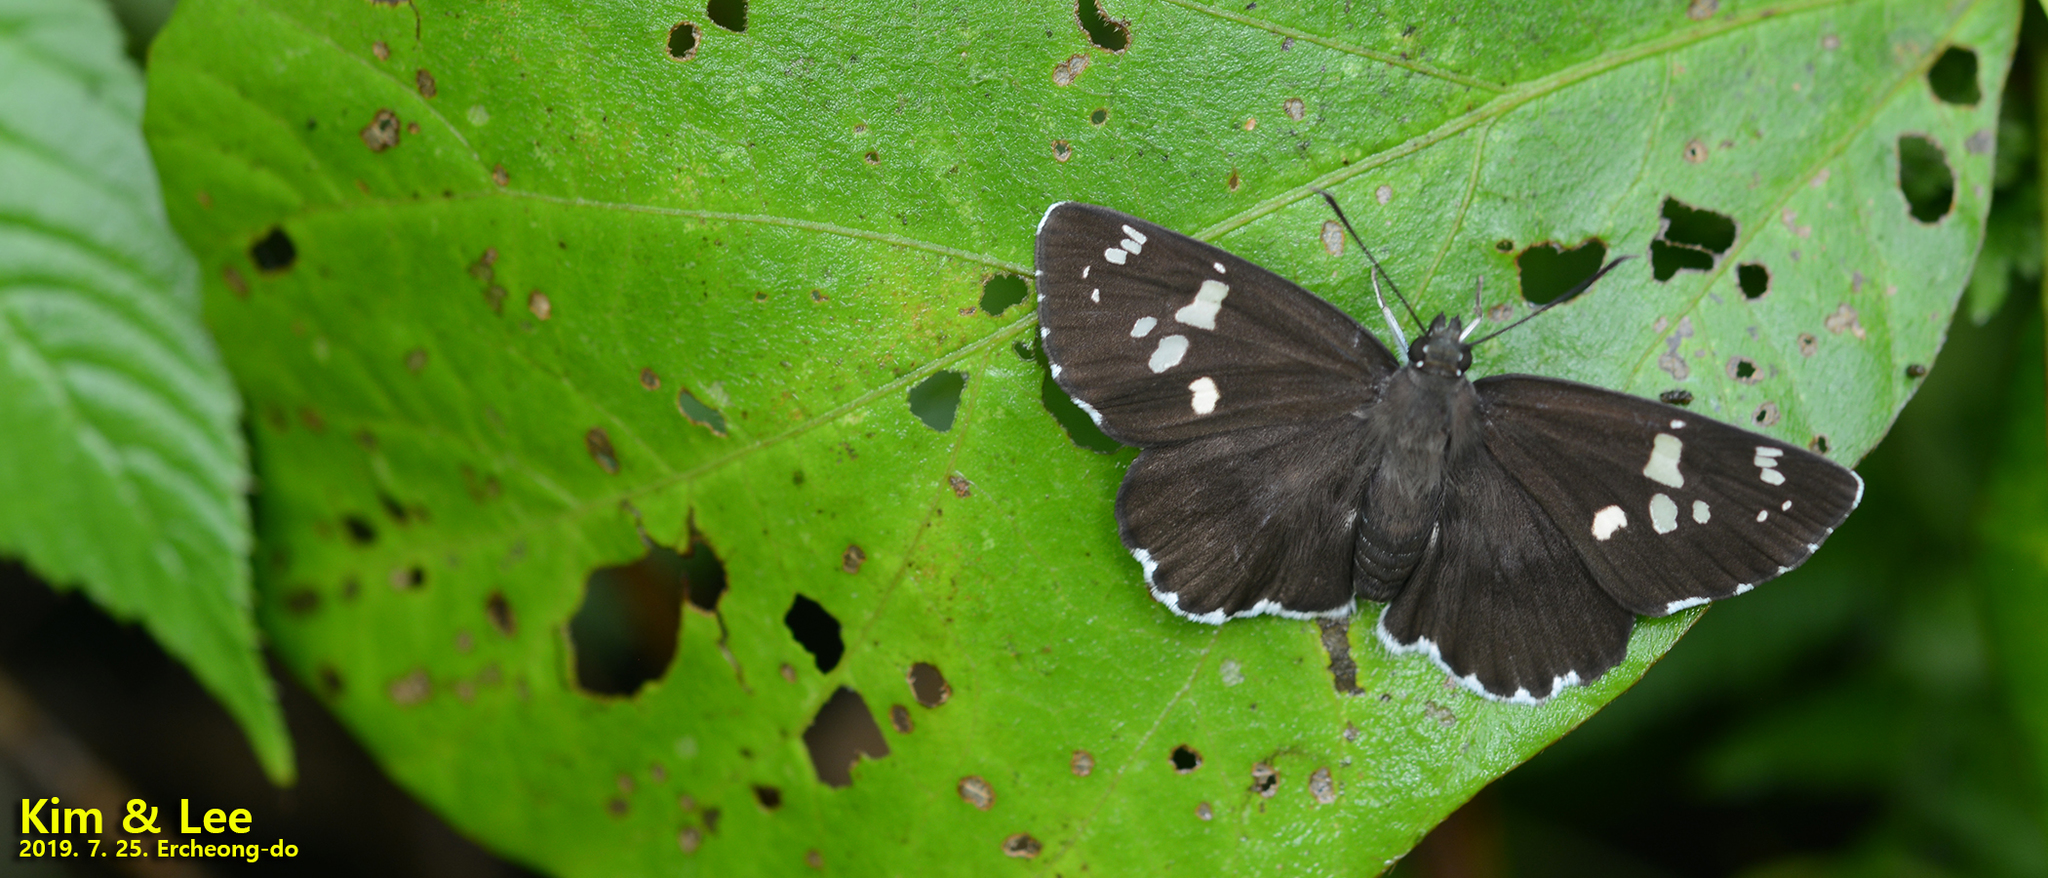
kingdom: Animalia
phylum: Arthropoda
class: Insecta
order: Lepidoptera
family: Hesperiidae
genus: Daimio
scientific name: Daimio tethys
